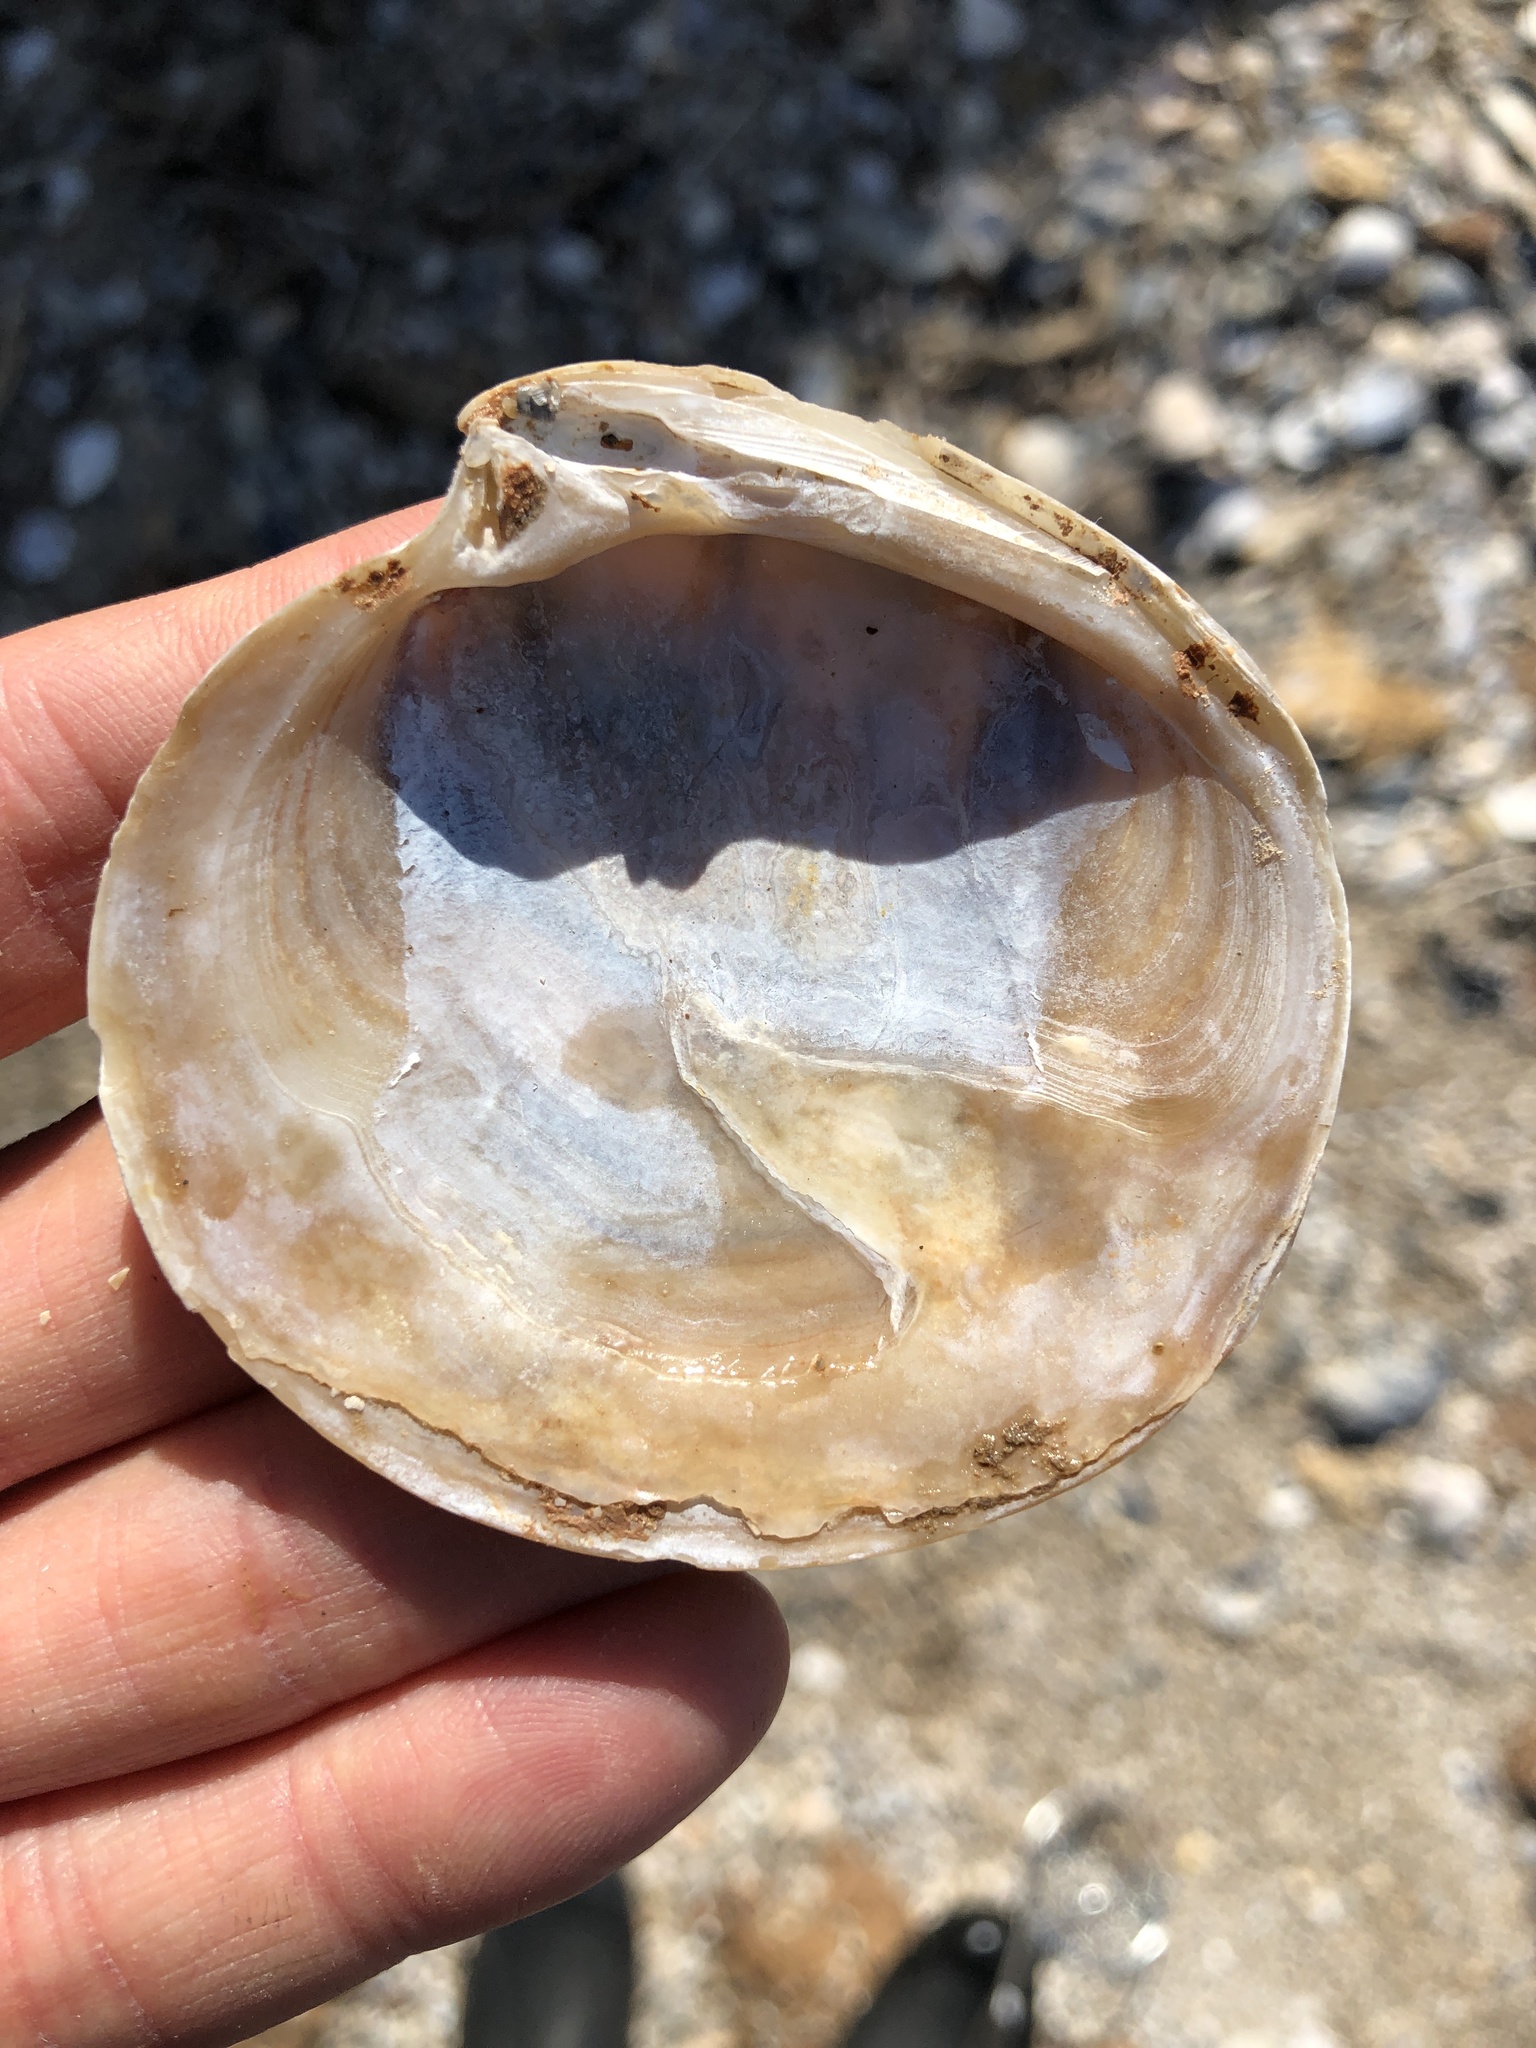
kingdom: Animalia
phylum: Mollusca
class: Bivalvia
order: Venerida
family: Veneridae
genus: Dosinia
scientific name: Dosinia discus
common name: Disk dosinia
